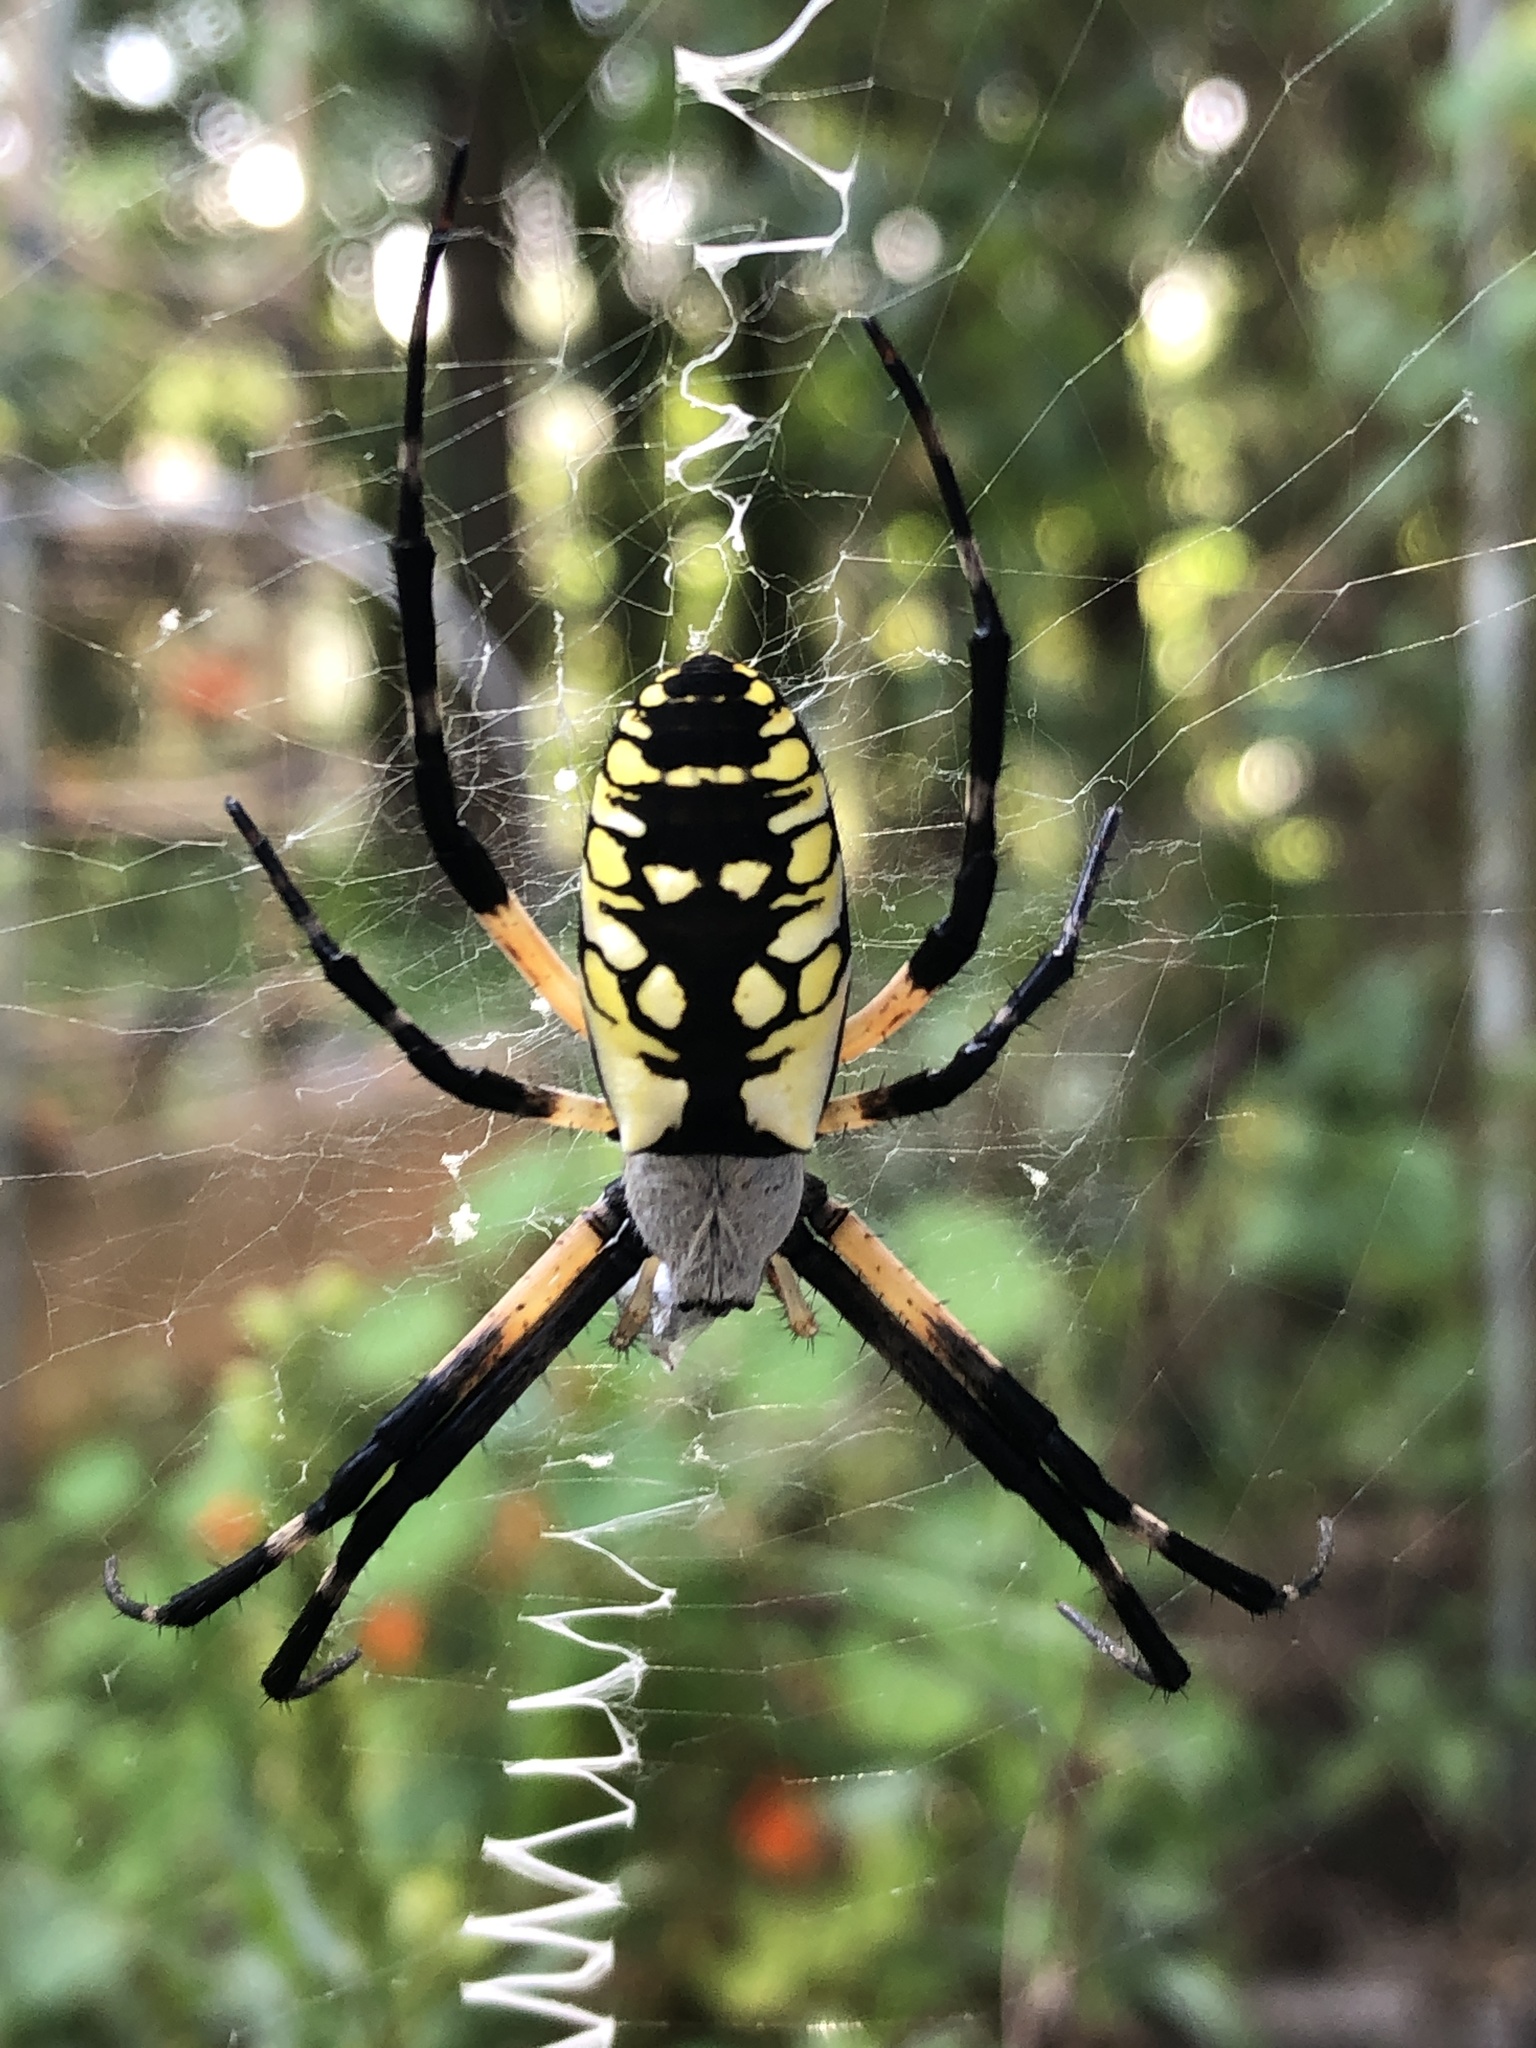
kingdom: Animalia
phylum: Arthropoda
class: Arachnida
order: Araneae
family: Araneidae
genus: Argiope
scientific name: Argiope aurantia
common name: Orb weavers
